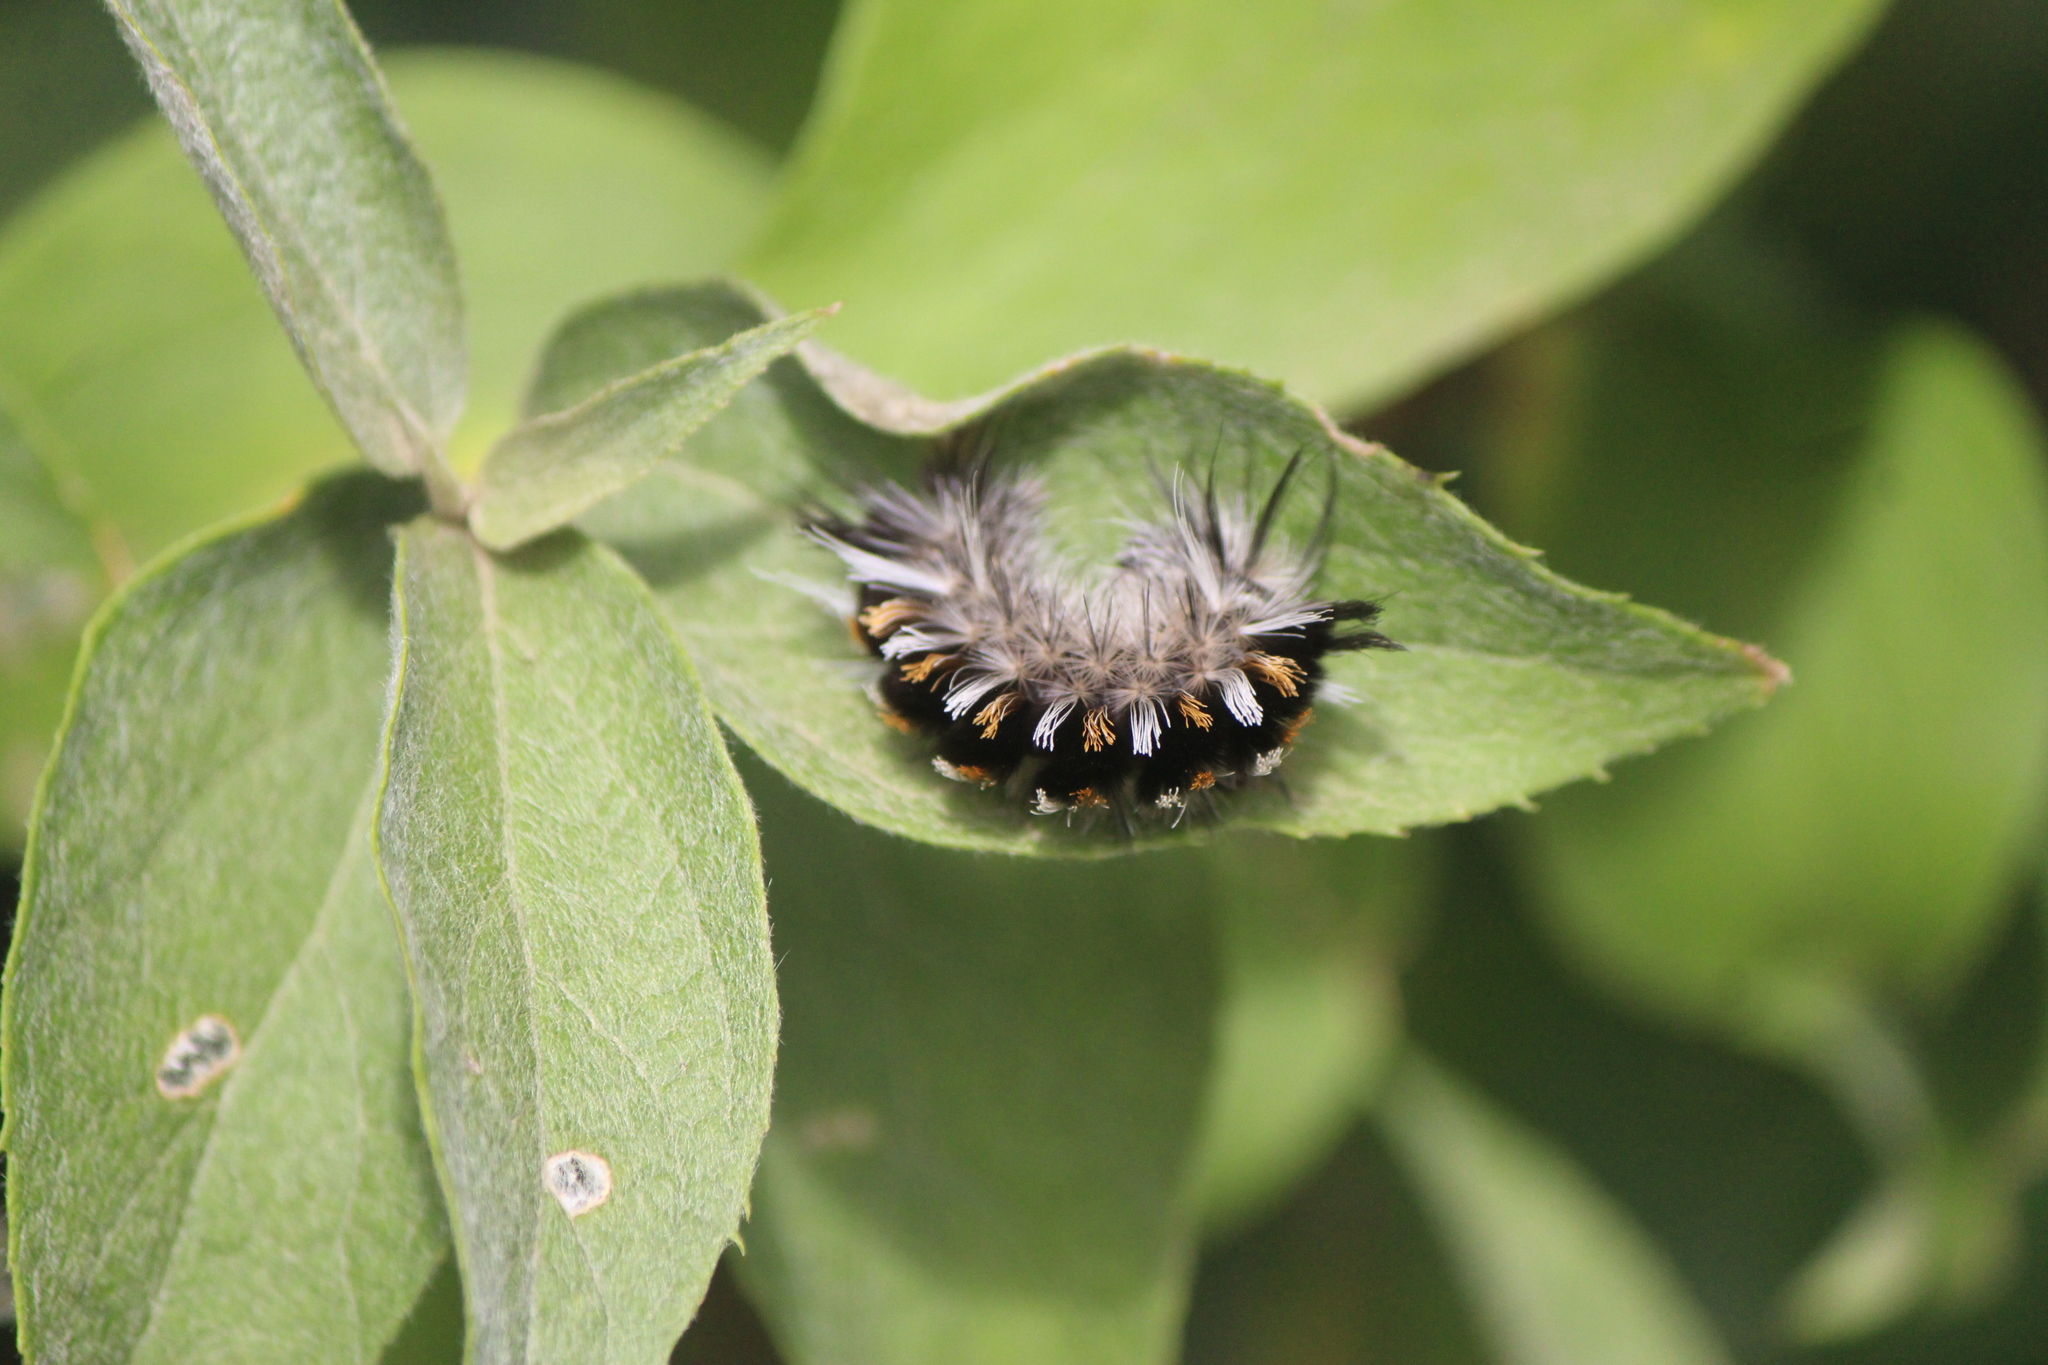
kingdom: Animalia
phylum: Arthropoda
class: Insecta
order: Lepidoptera
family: Erebidae
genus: Euchaetes
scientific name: Euchaetes antica
